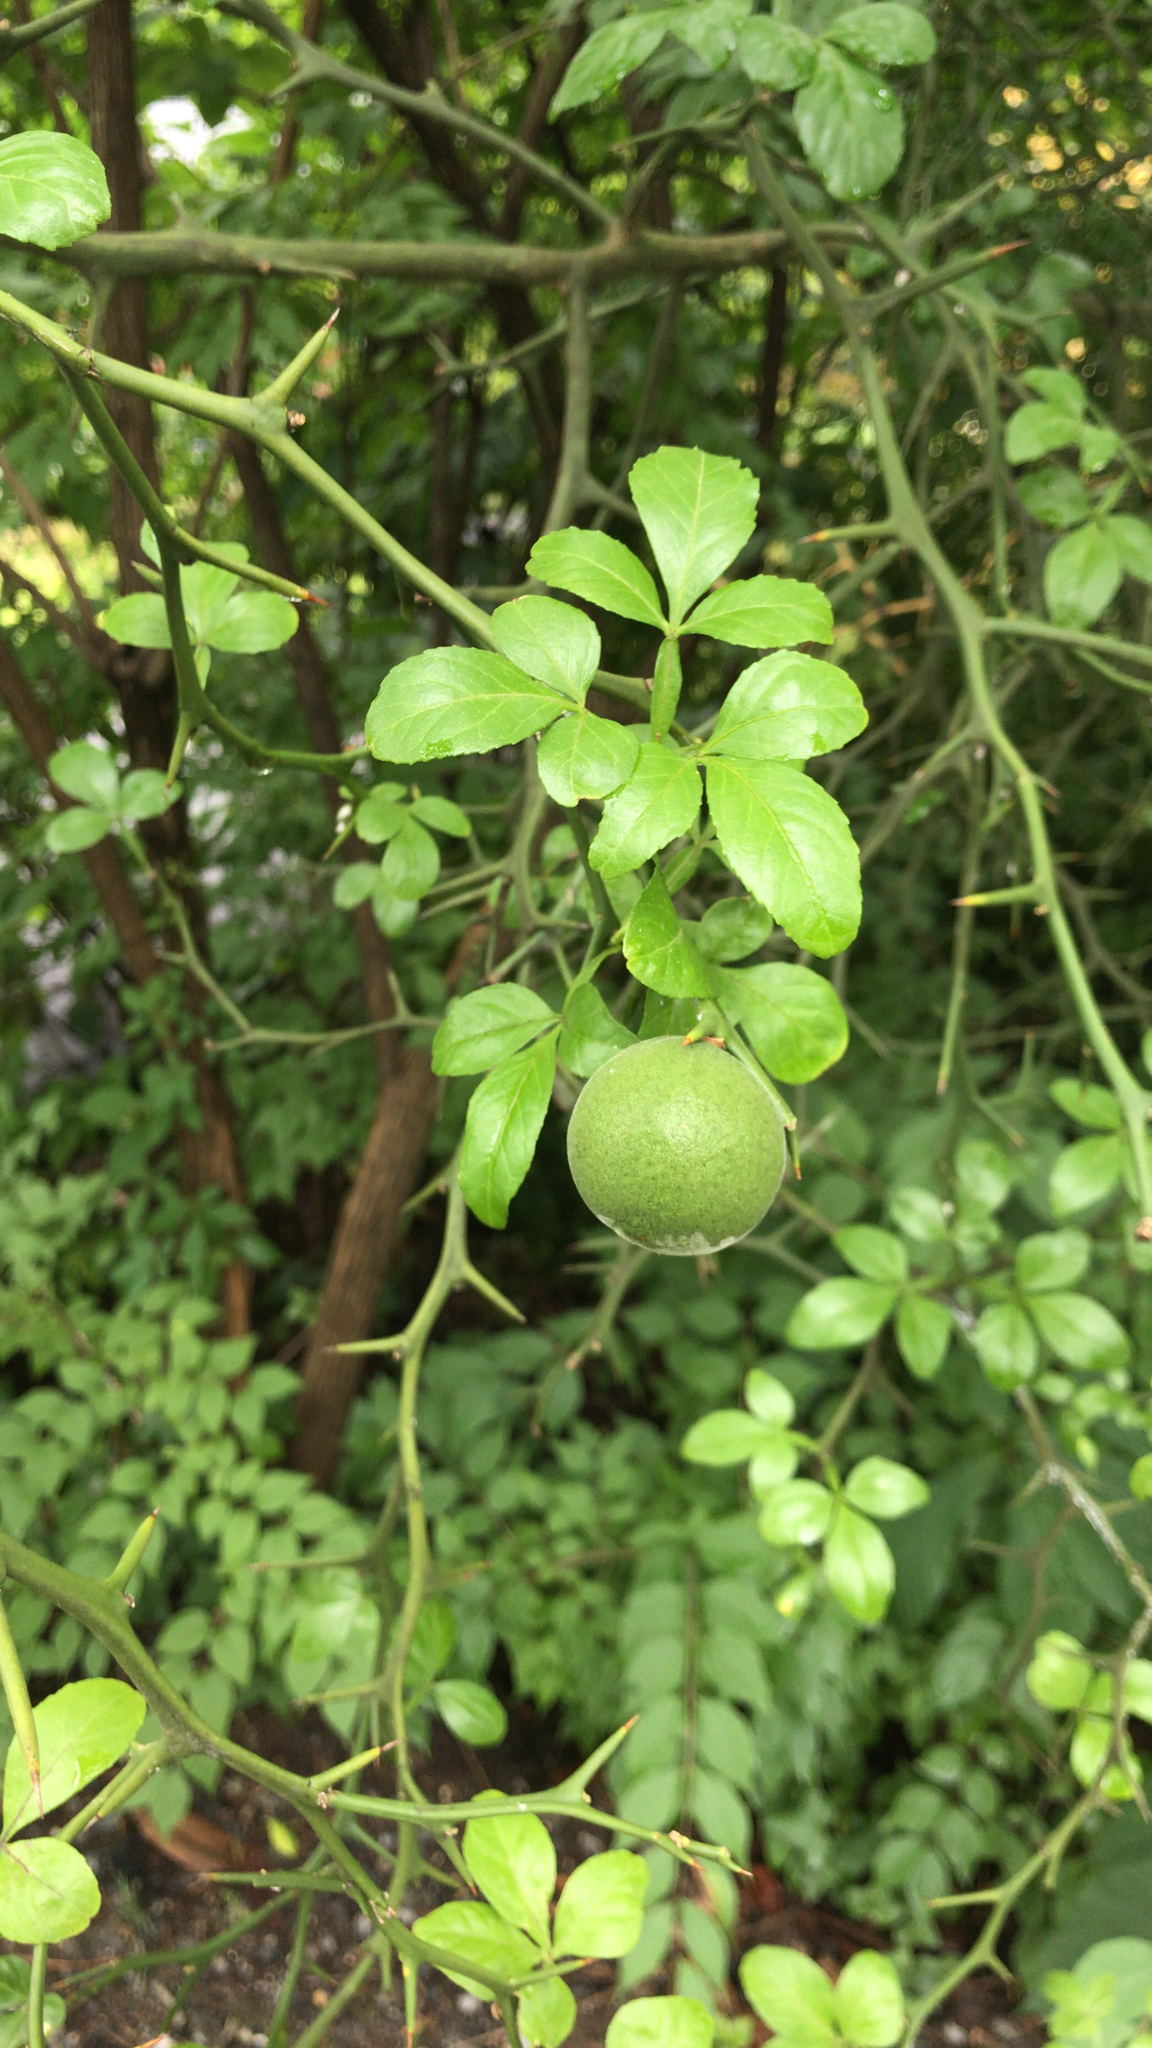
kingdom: Plantae
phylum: Tracheophyta
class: Magnoliopsida
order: Sapindales
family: Rutaceae
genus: Citrus
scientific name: Citrus trifoliata
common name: Japanese bitter-orange
